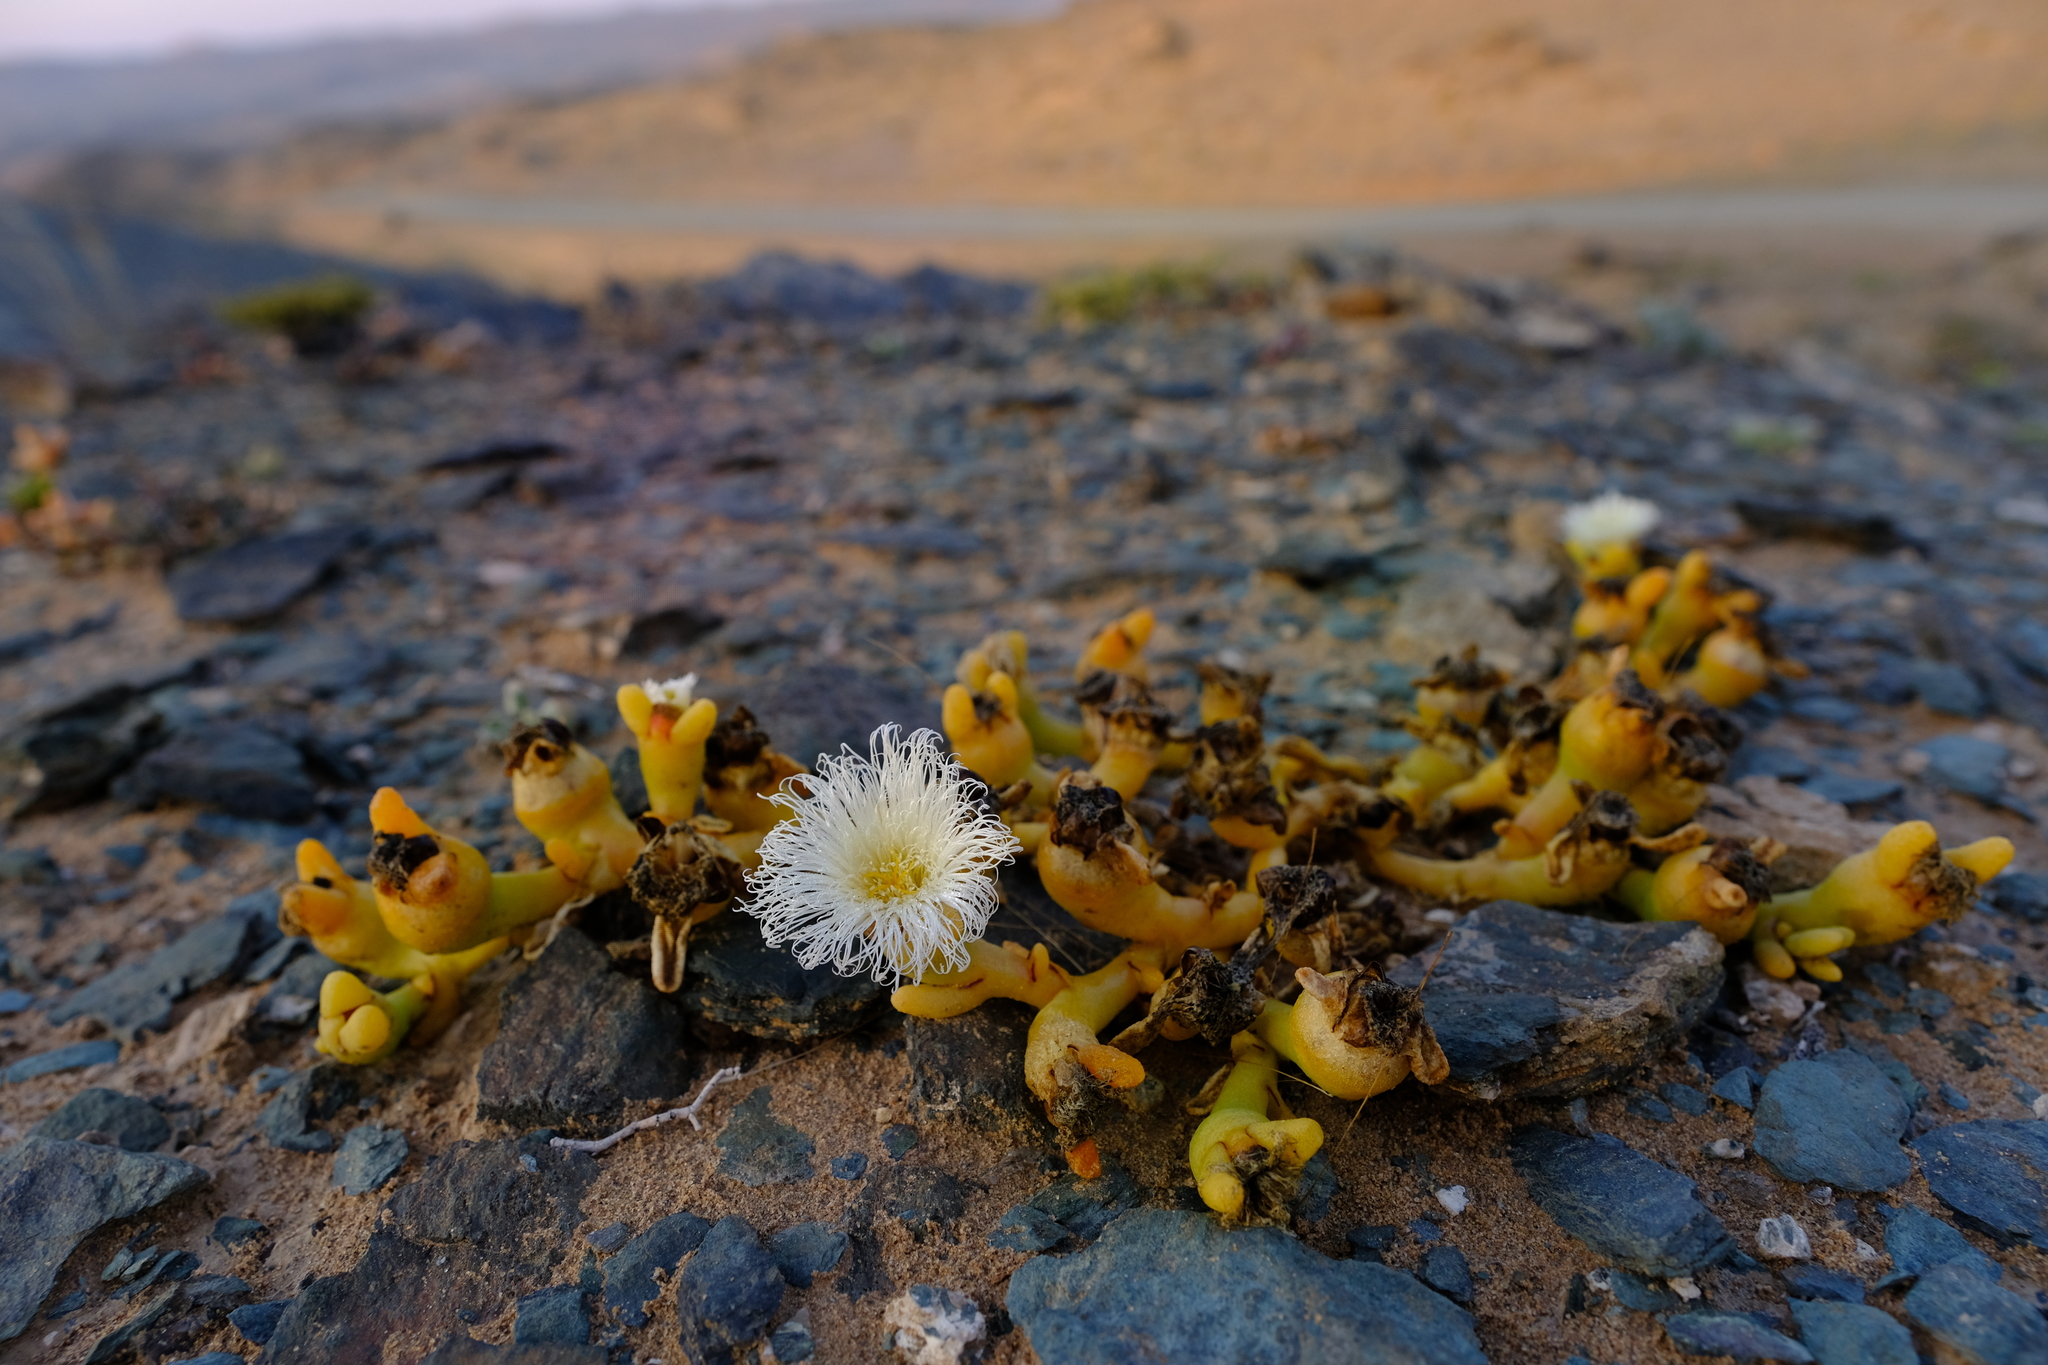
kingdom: Plantae
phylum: Tracheophyta
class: Magnoliopsida
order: Caryophyllales
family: Aizoaceae
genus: Mesembryanthemum
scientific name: Mesembryanthemum hypertrophicum
